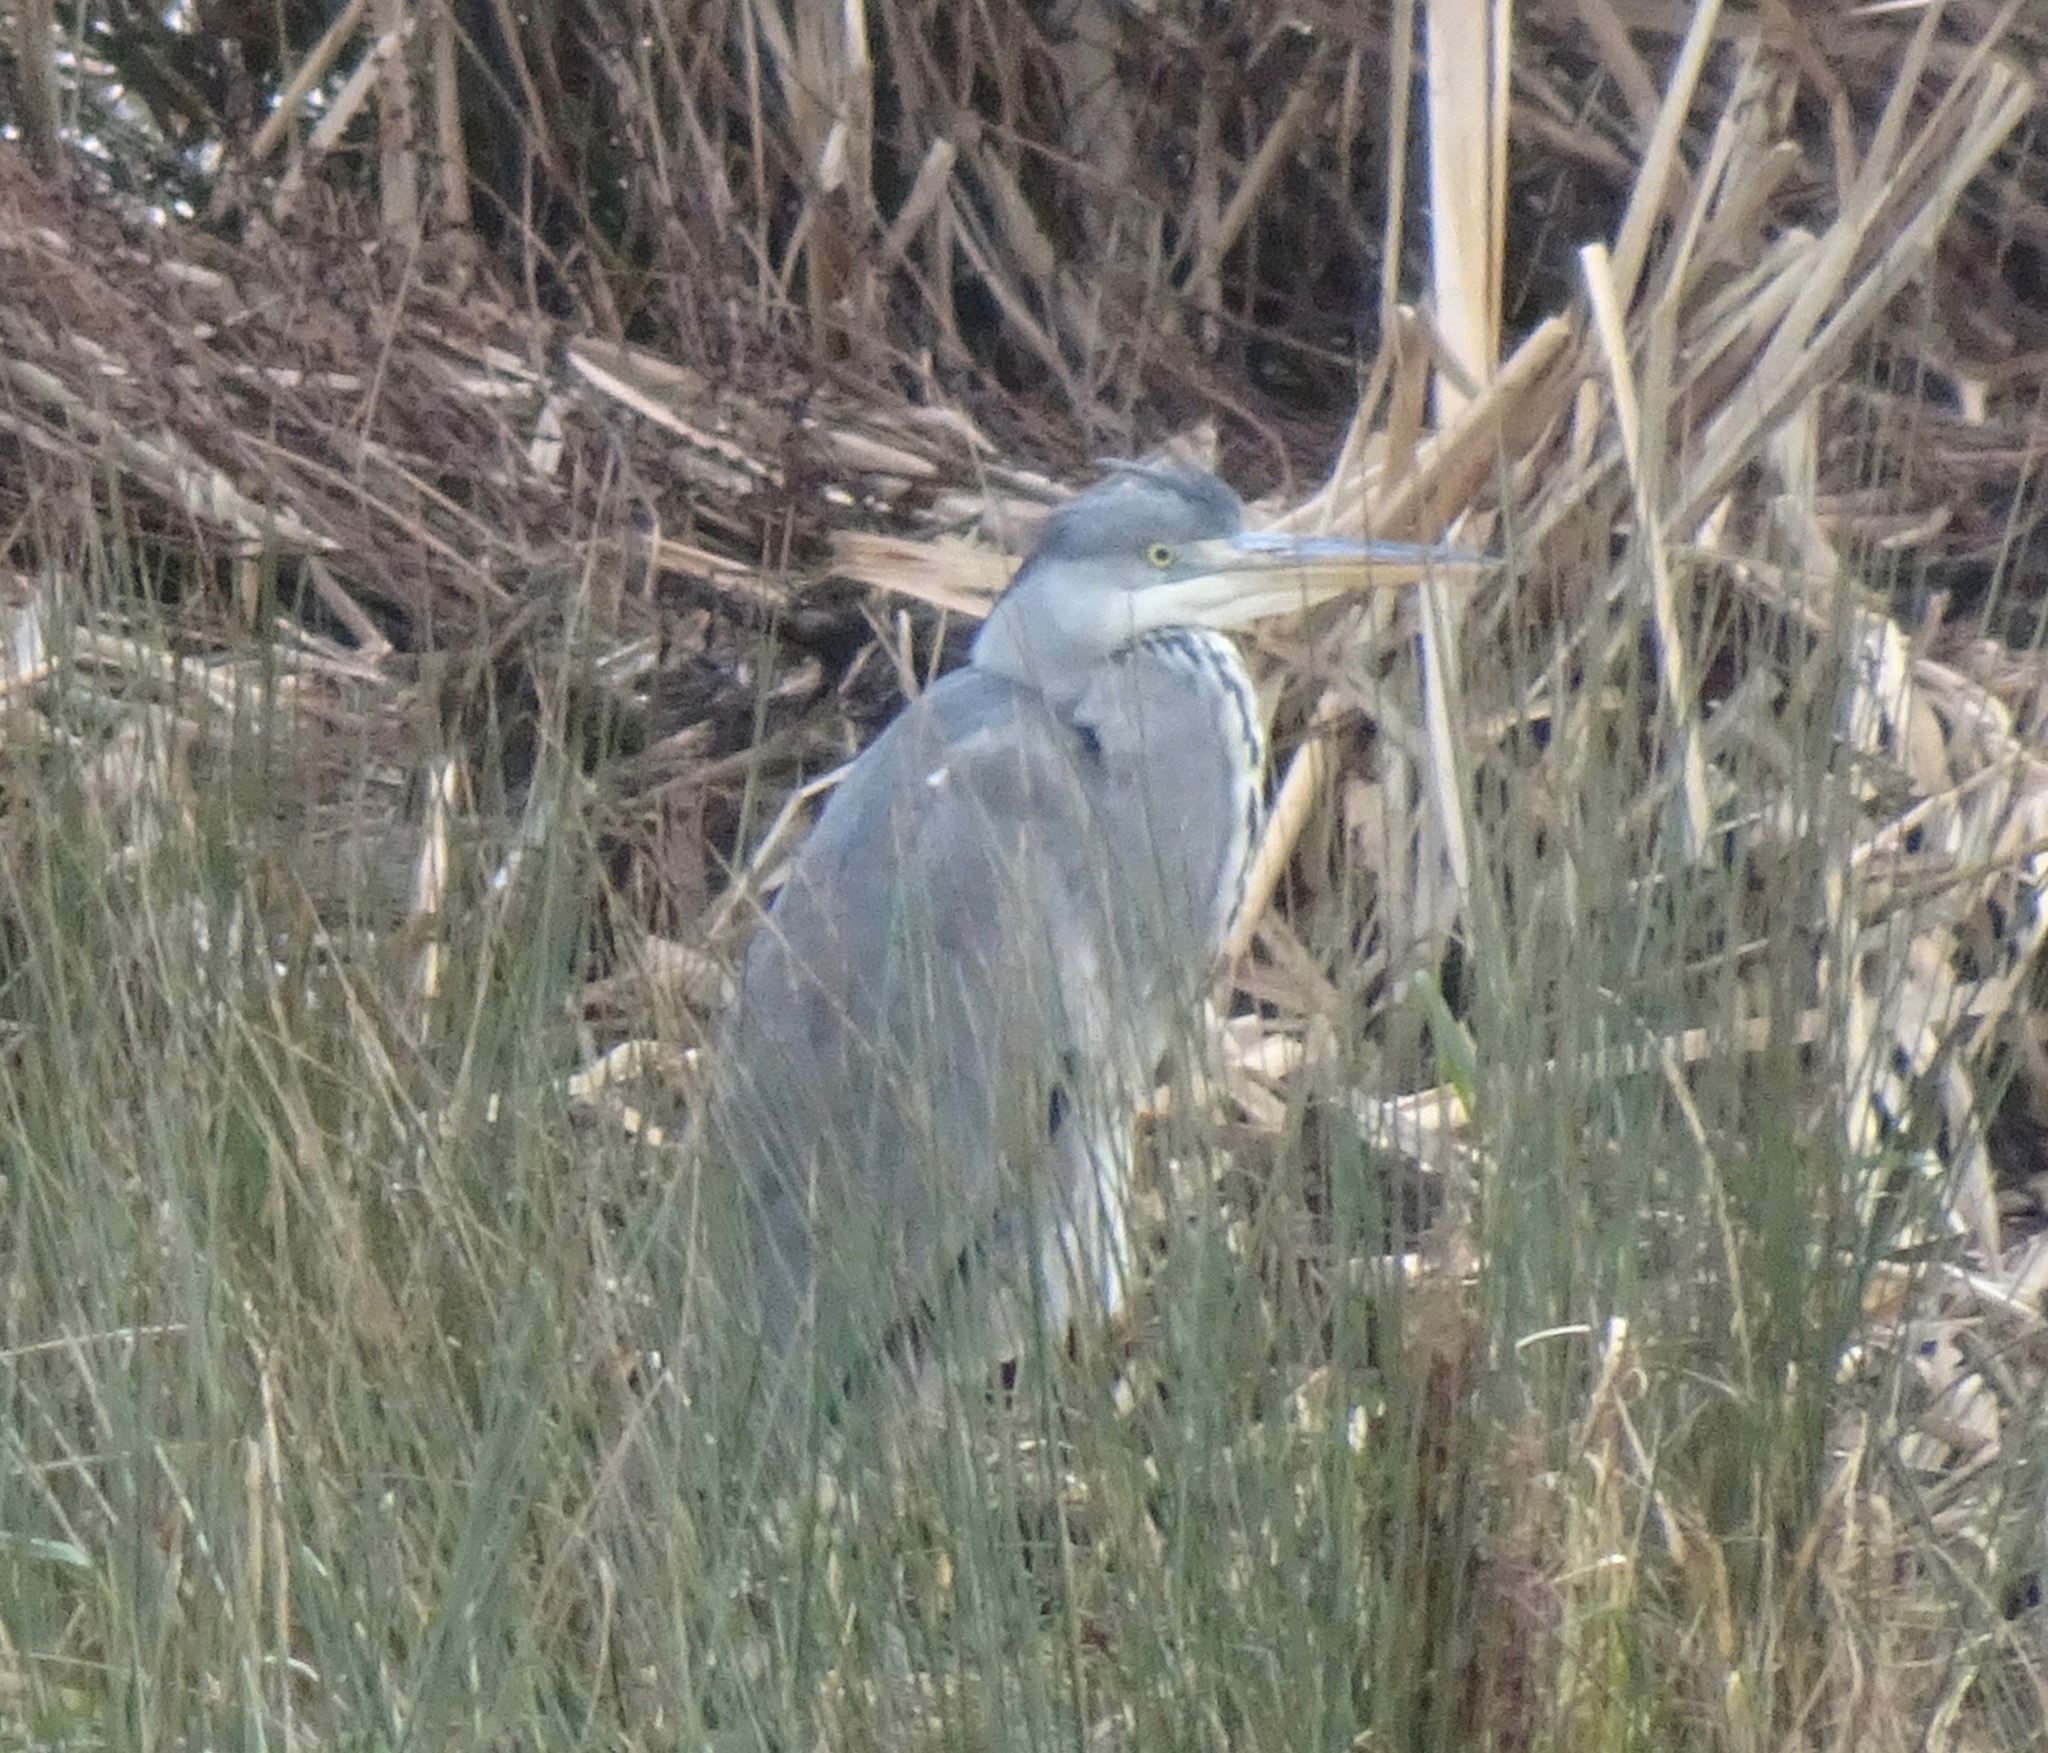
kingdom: Animalia
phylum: Chordata
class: Aves
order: Pelecaniformes
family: Ardeidae
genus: Ardea
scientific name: Ardea cinerea
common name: Grey heron
